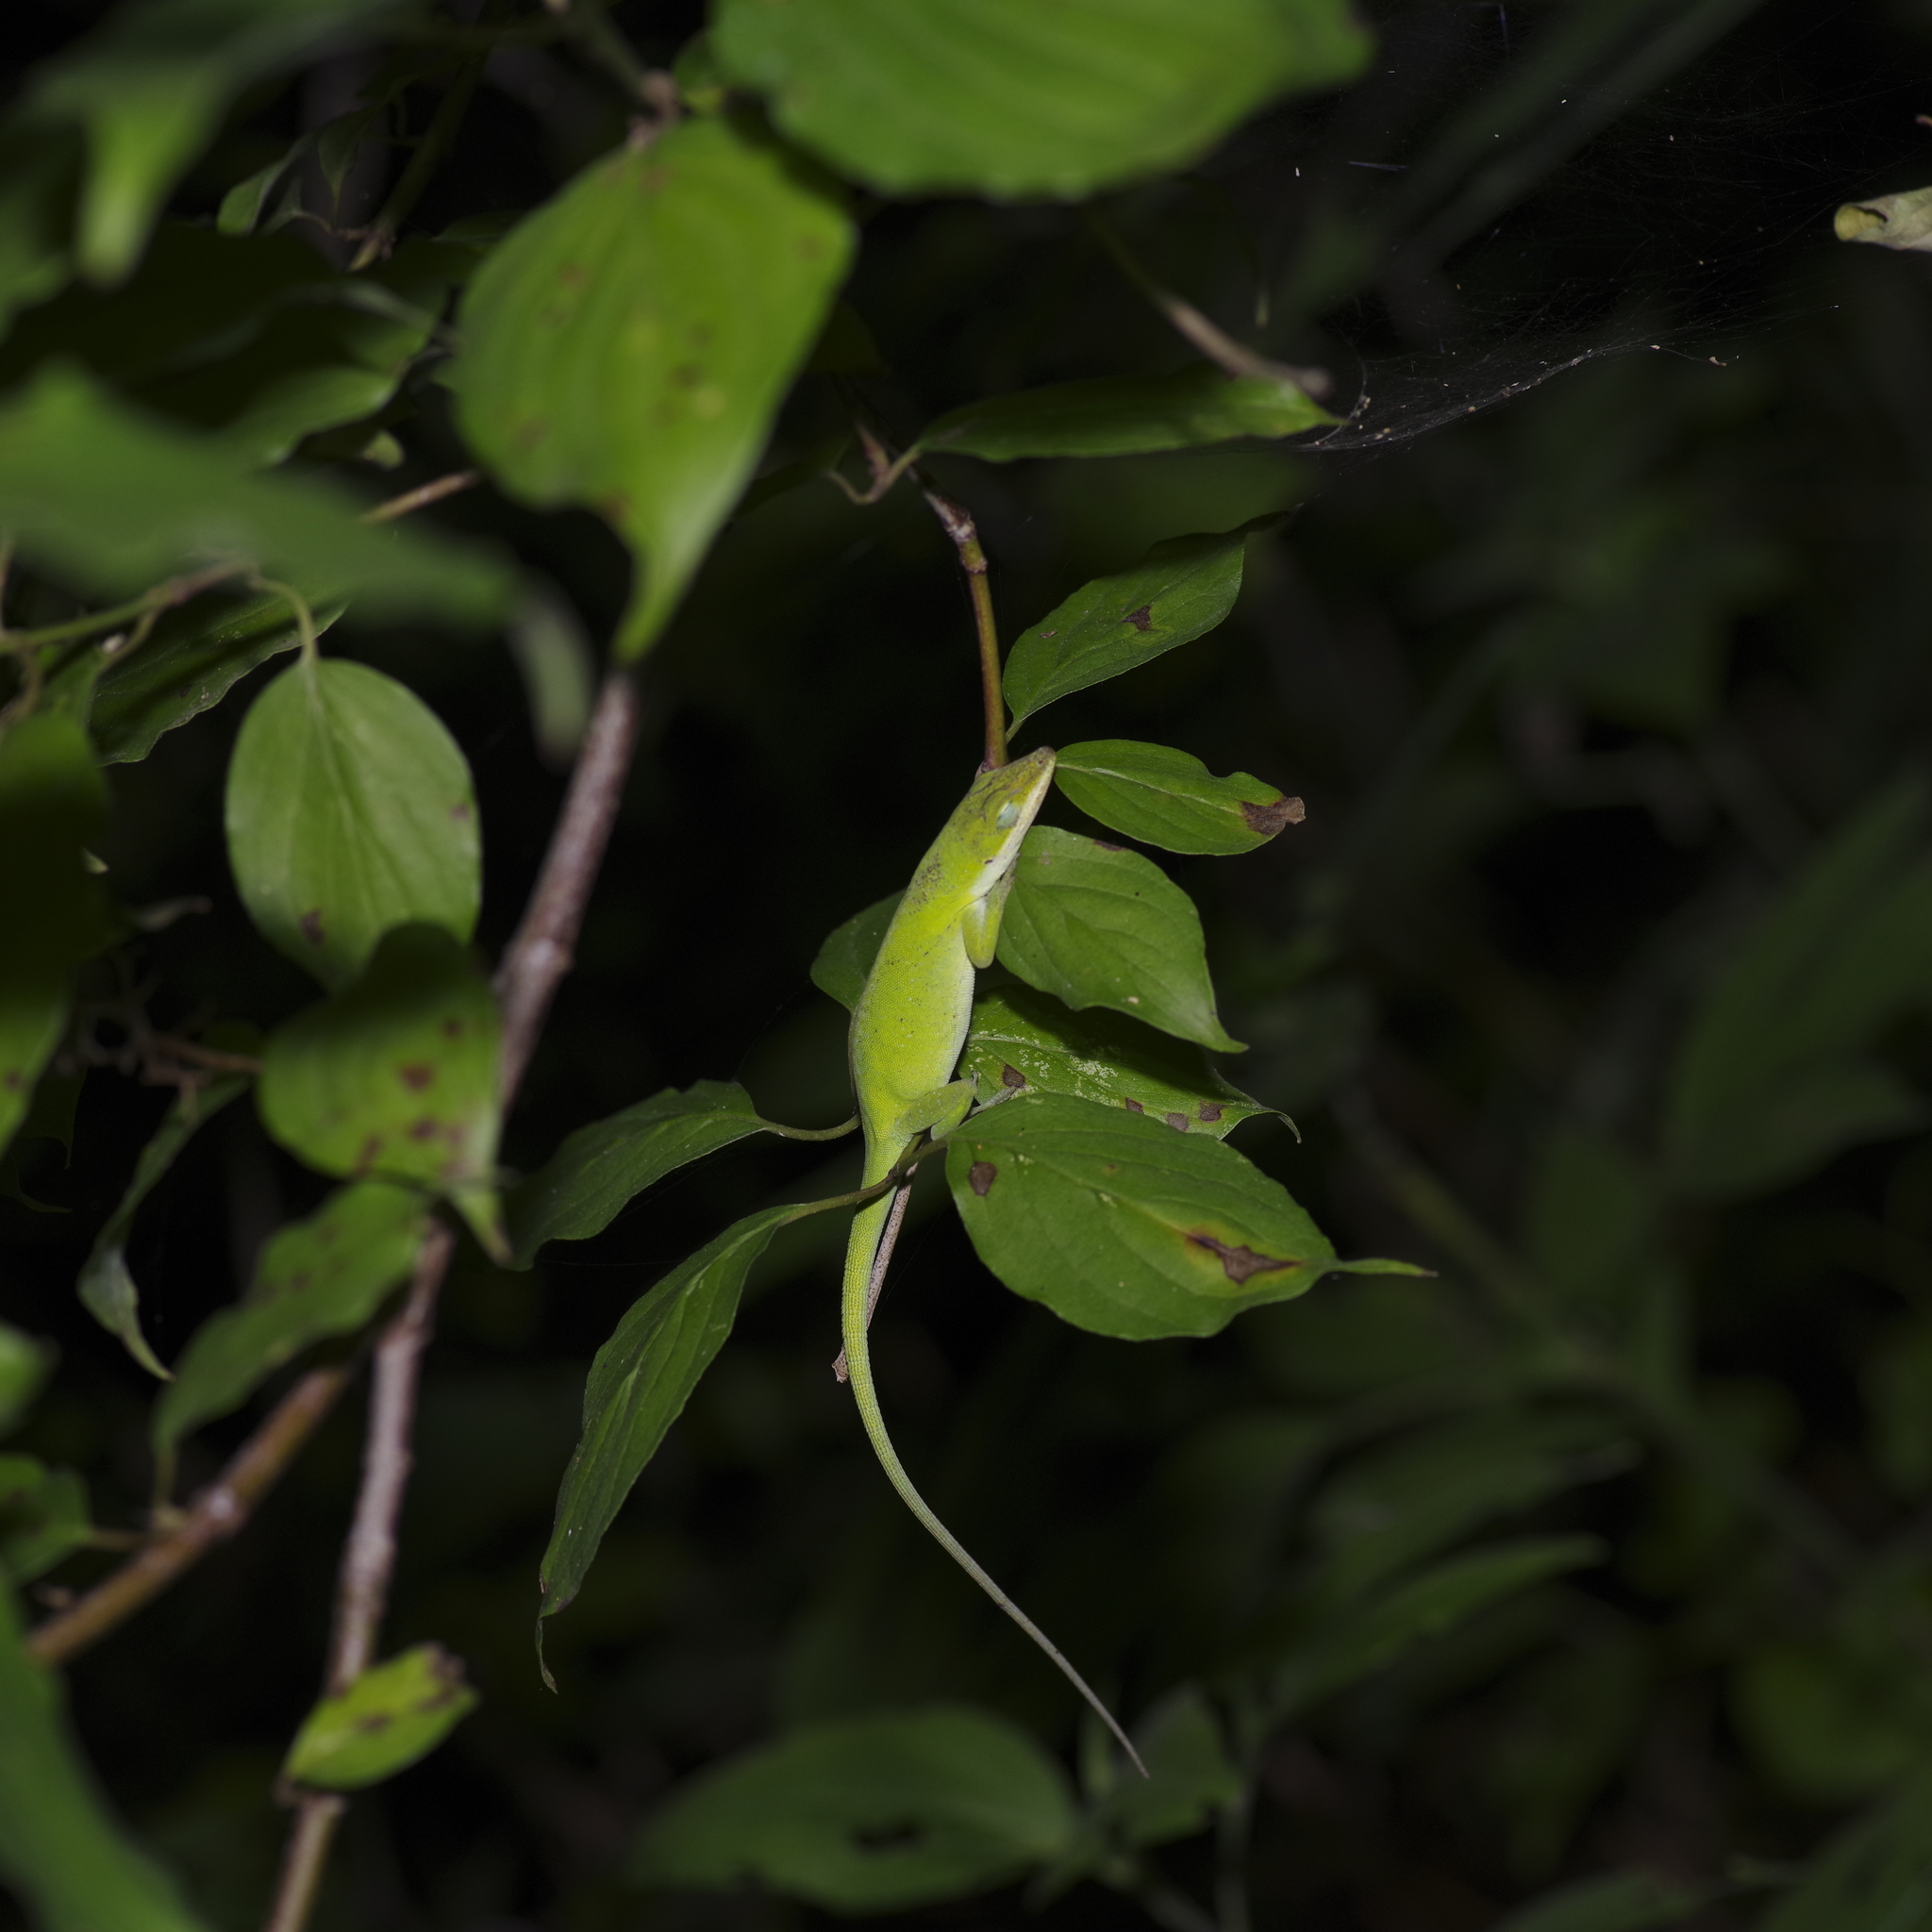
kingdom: Animalia
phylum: Chordata
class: Squamata
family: Dactyloidae
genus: Anolis
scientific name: Anolis carolinensis
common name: Green anole
